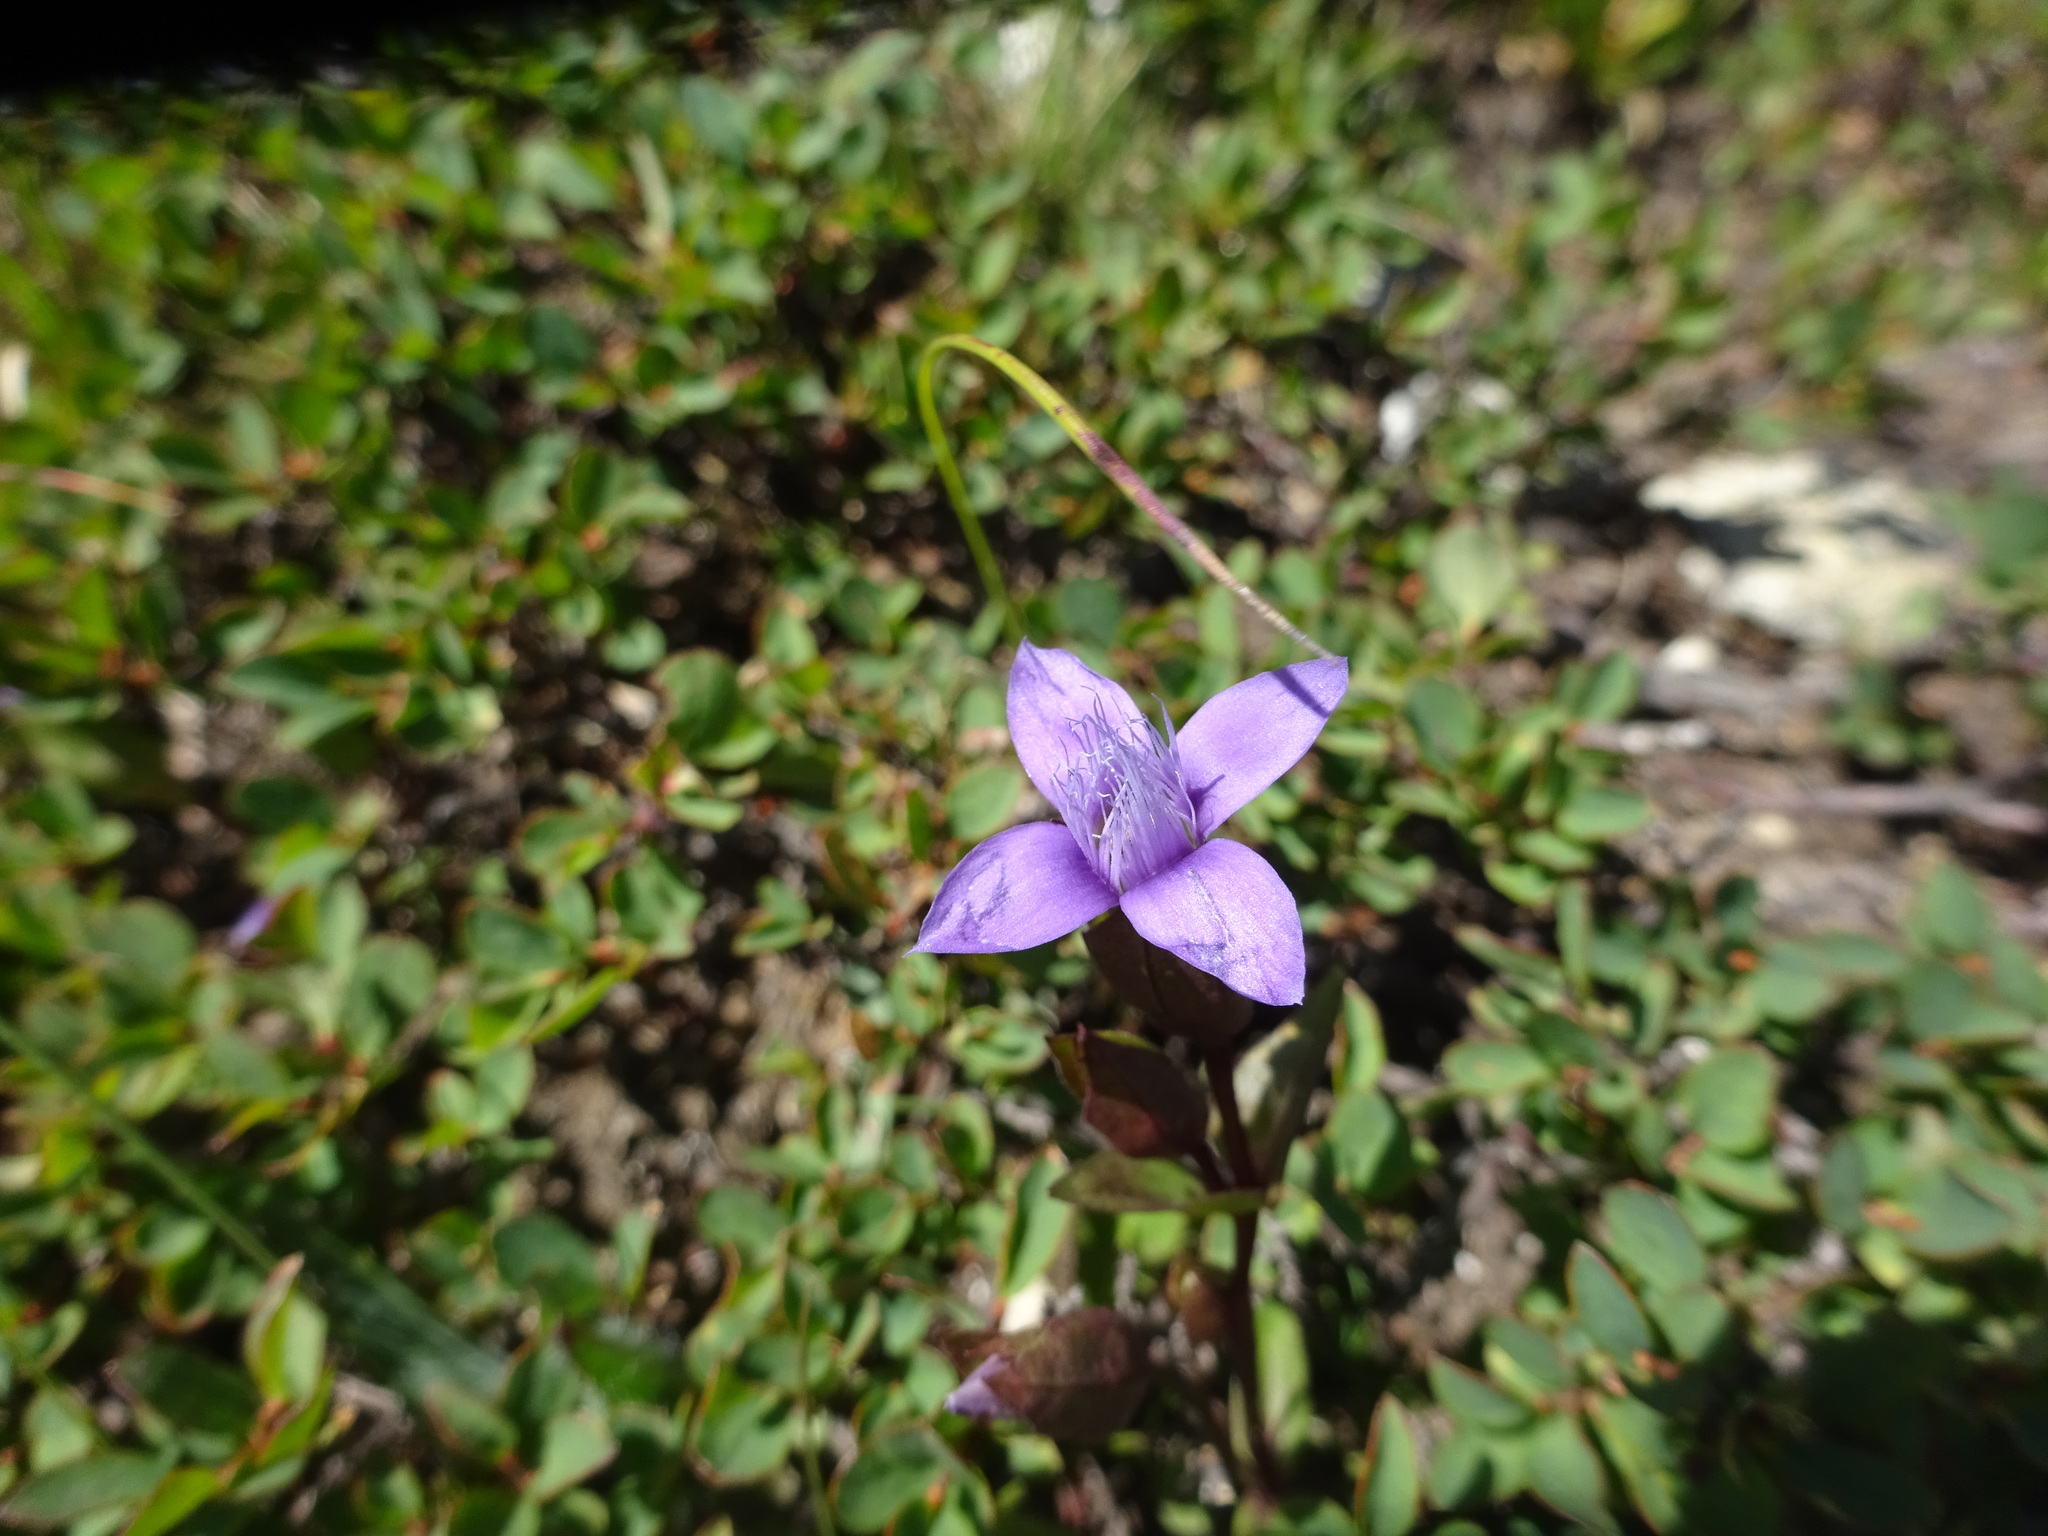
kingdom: Plantae
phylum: Tracheophyta
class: Magnoliopsida
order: Gentianales
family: Gentianaceae
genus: Gentianella
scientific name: Gentianella campestris
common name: Field gentian
